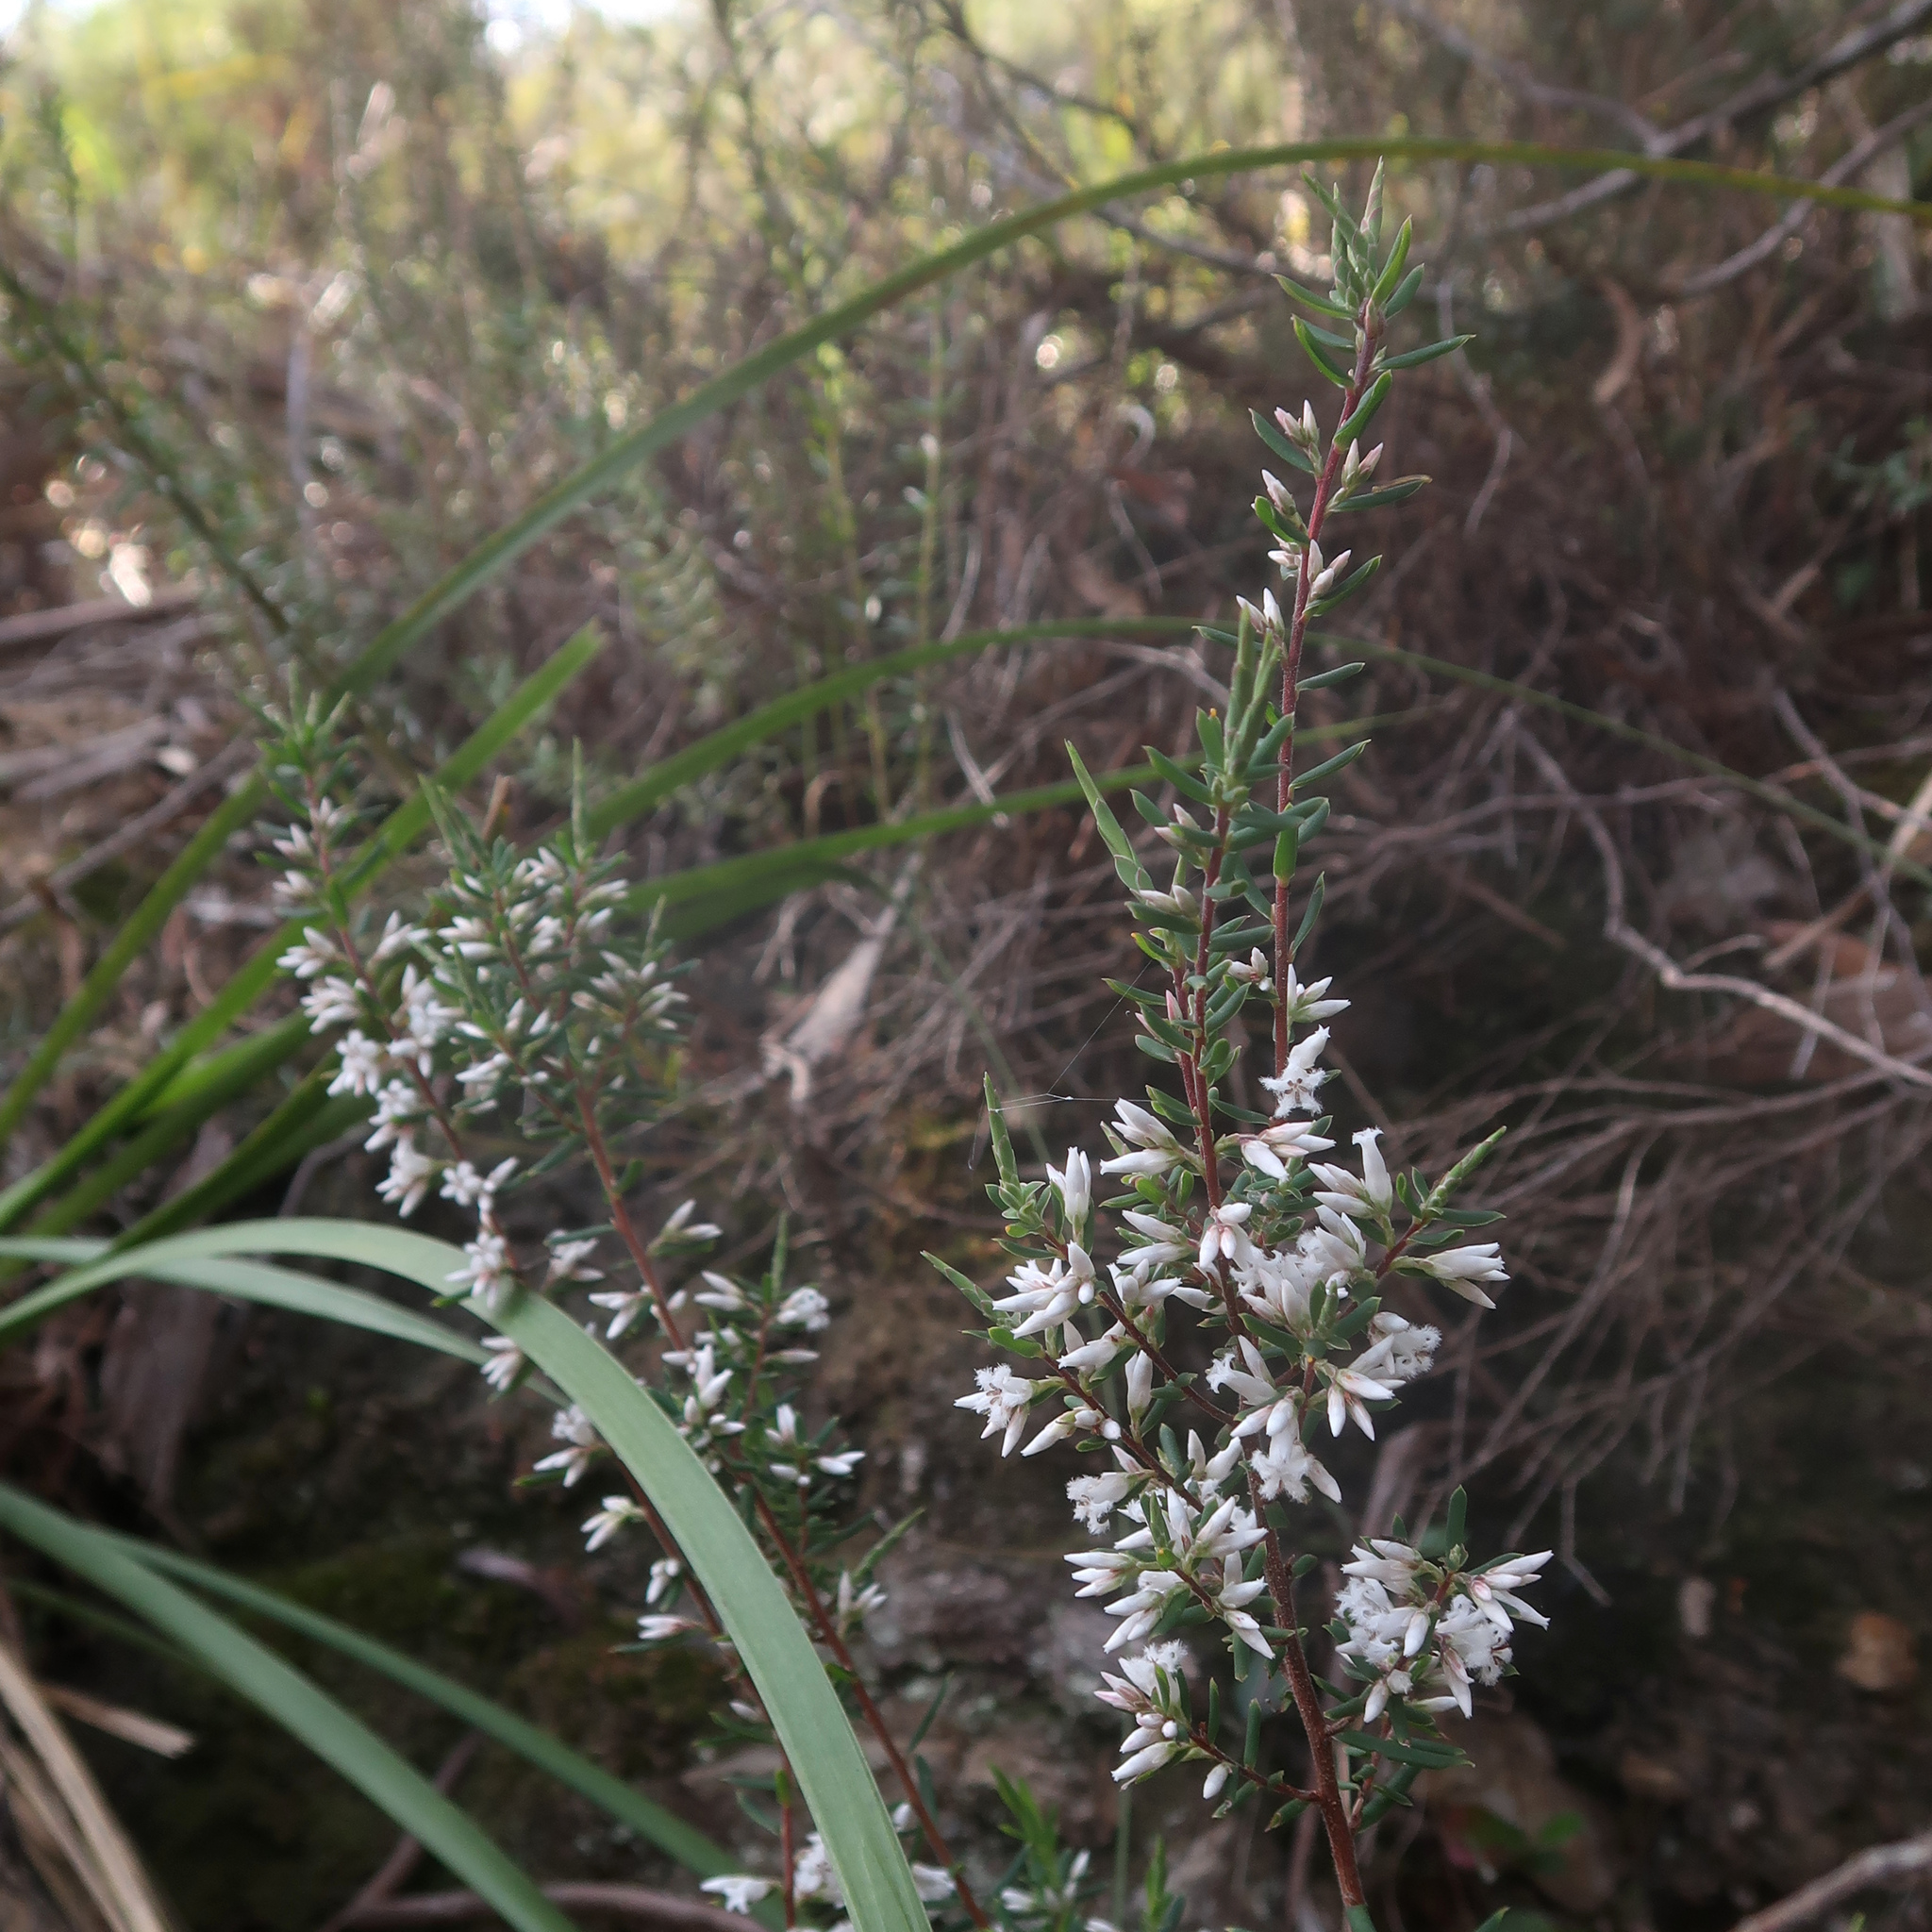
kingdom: Plantae
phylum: Tracheophyta
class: Magnoliopsida
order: Ericales
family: Ericaceae
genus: Styphelia
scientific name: Styphelia ericoides
